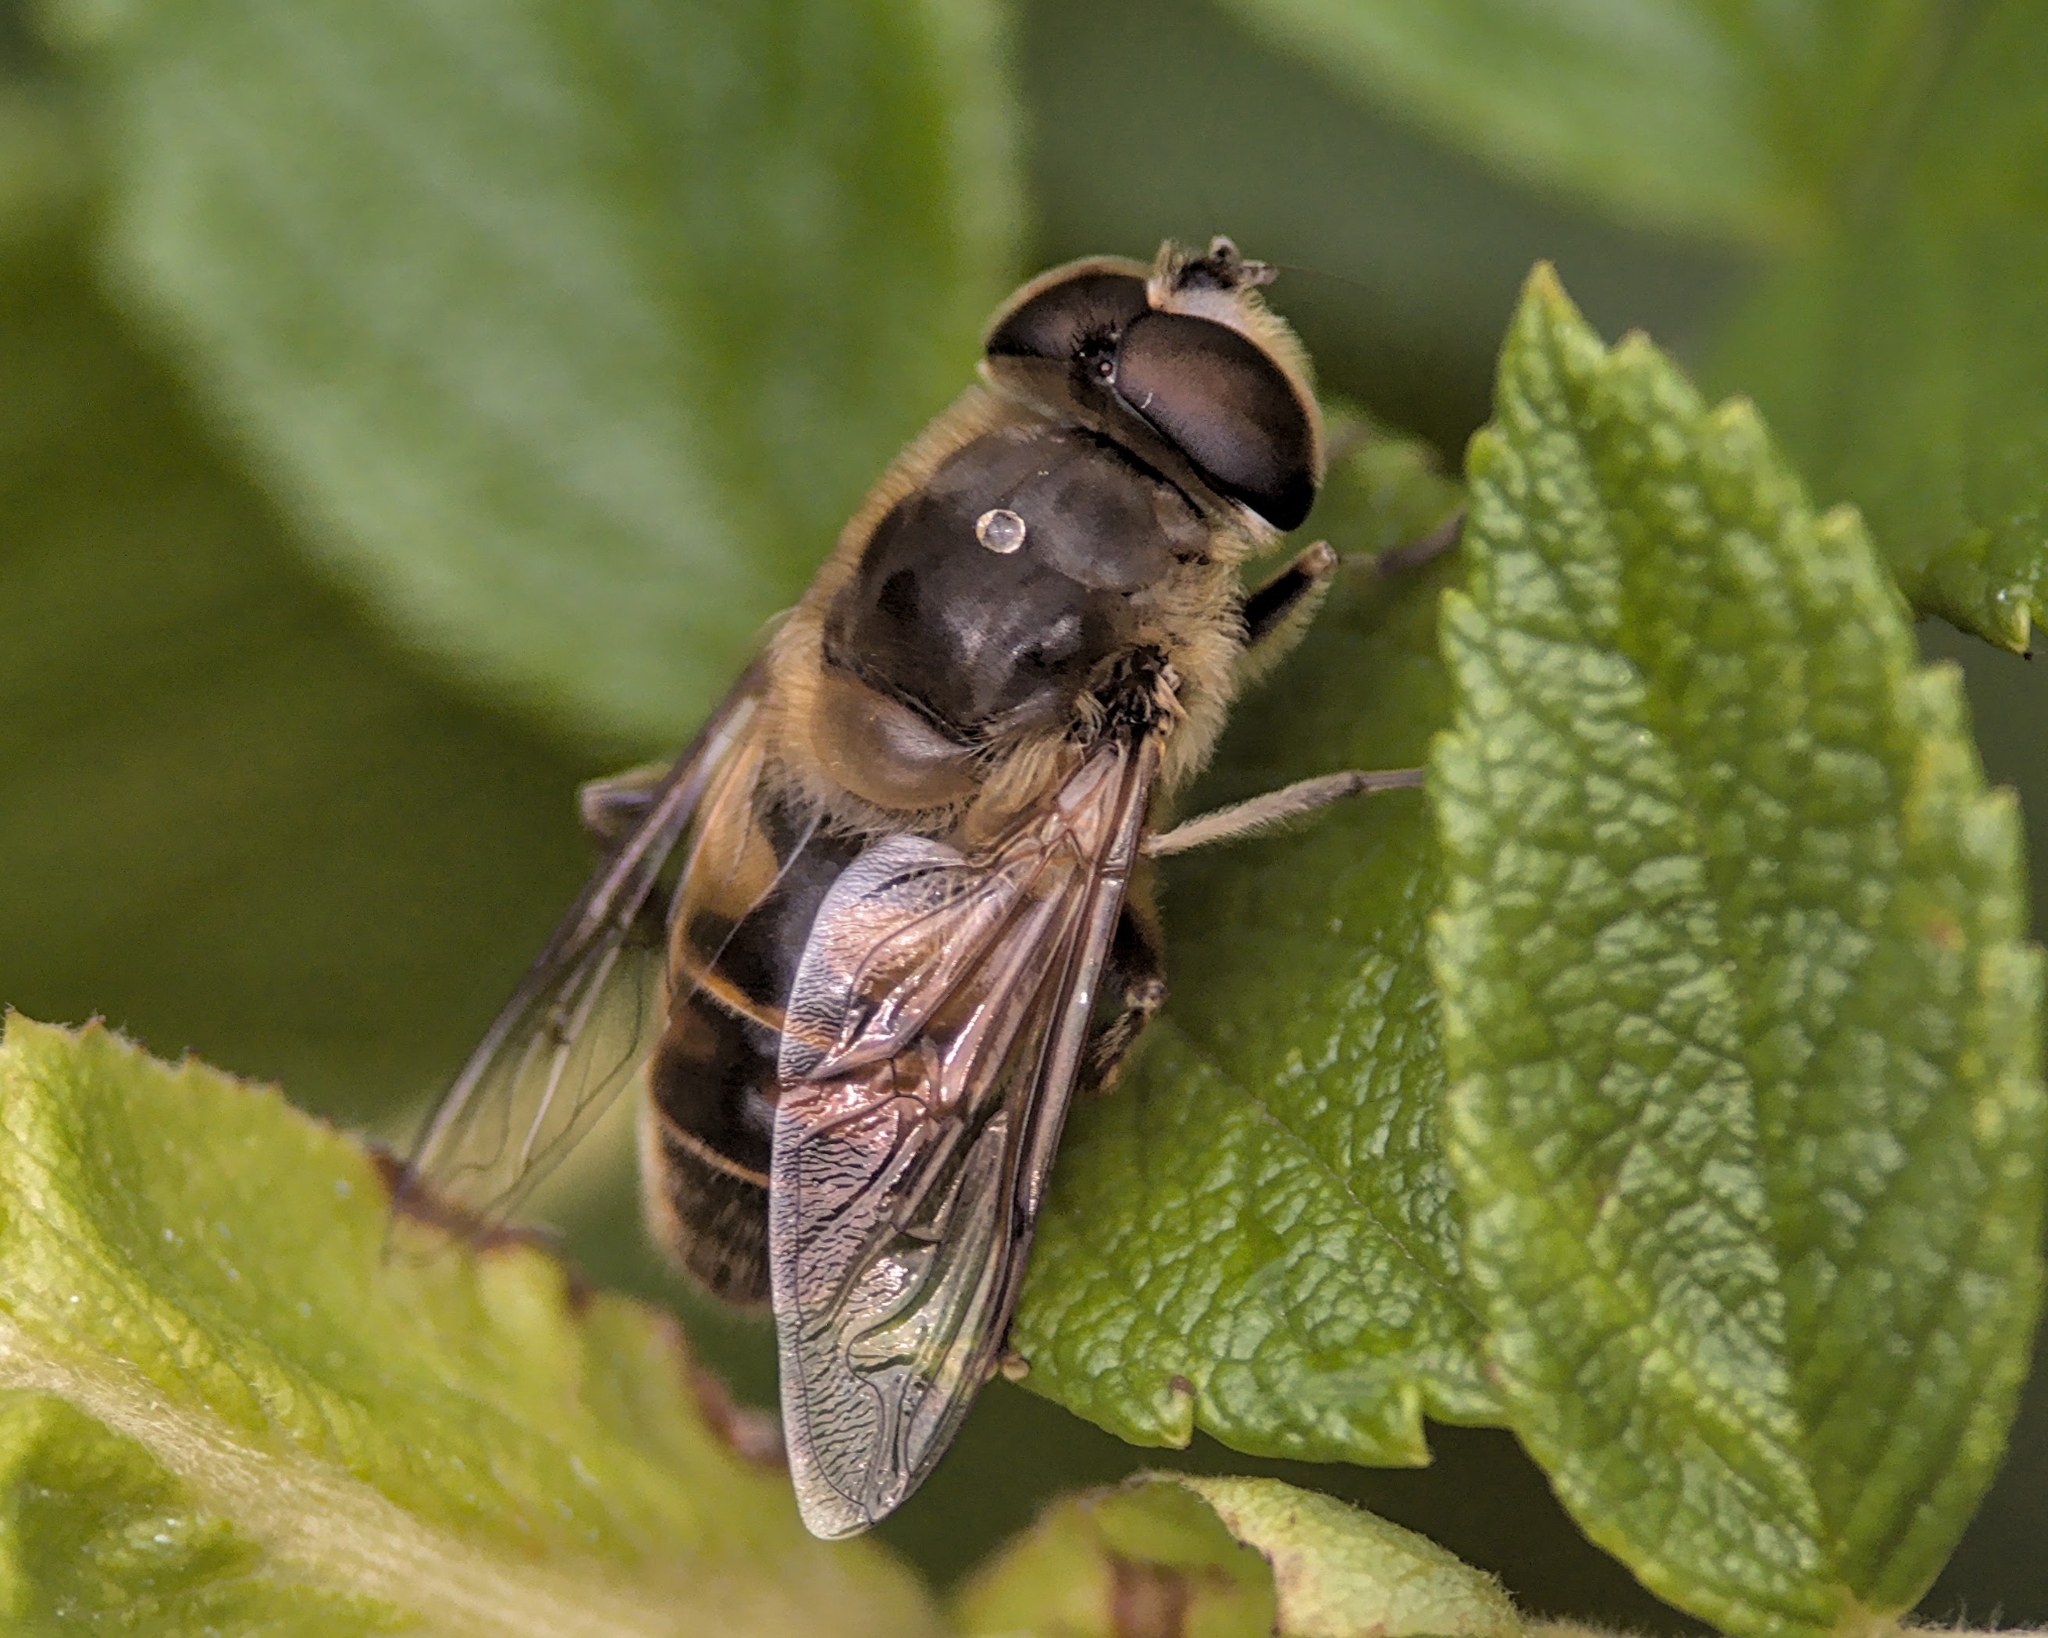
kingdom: Animalia
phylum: Arthropoda
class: Insecta
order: Diptera
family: Syrphidae
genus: Eristalis
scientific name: Eristalis tenax
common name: Drone fly
